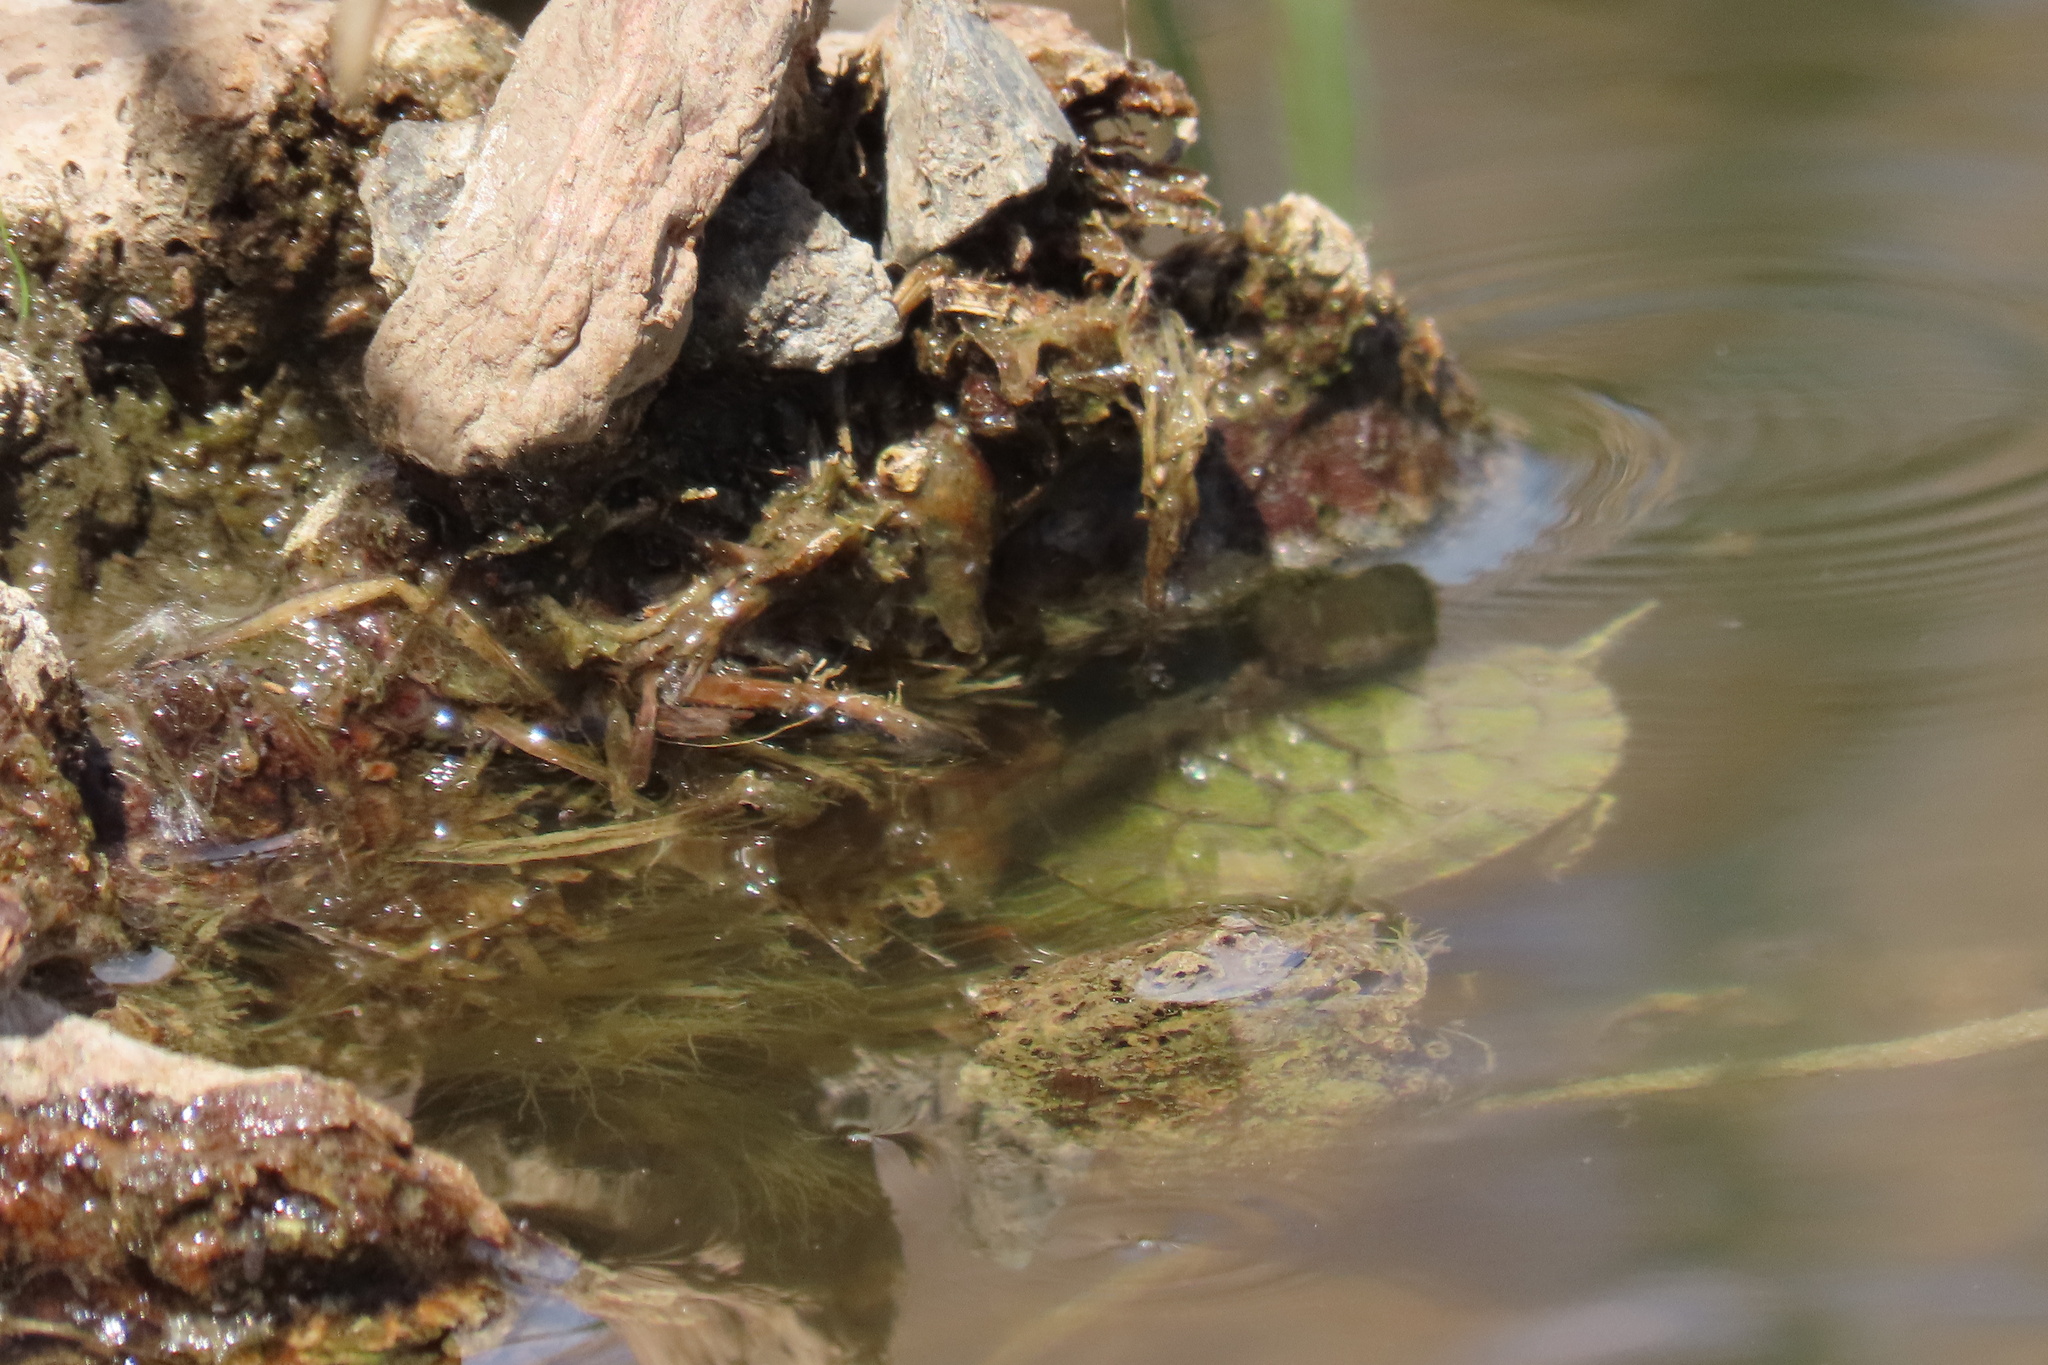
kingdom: Animalia
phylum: Chordata
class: Testudines
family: Emydidae
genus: Trachemys
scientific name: Trachemys scripta
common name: Slider
